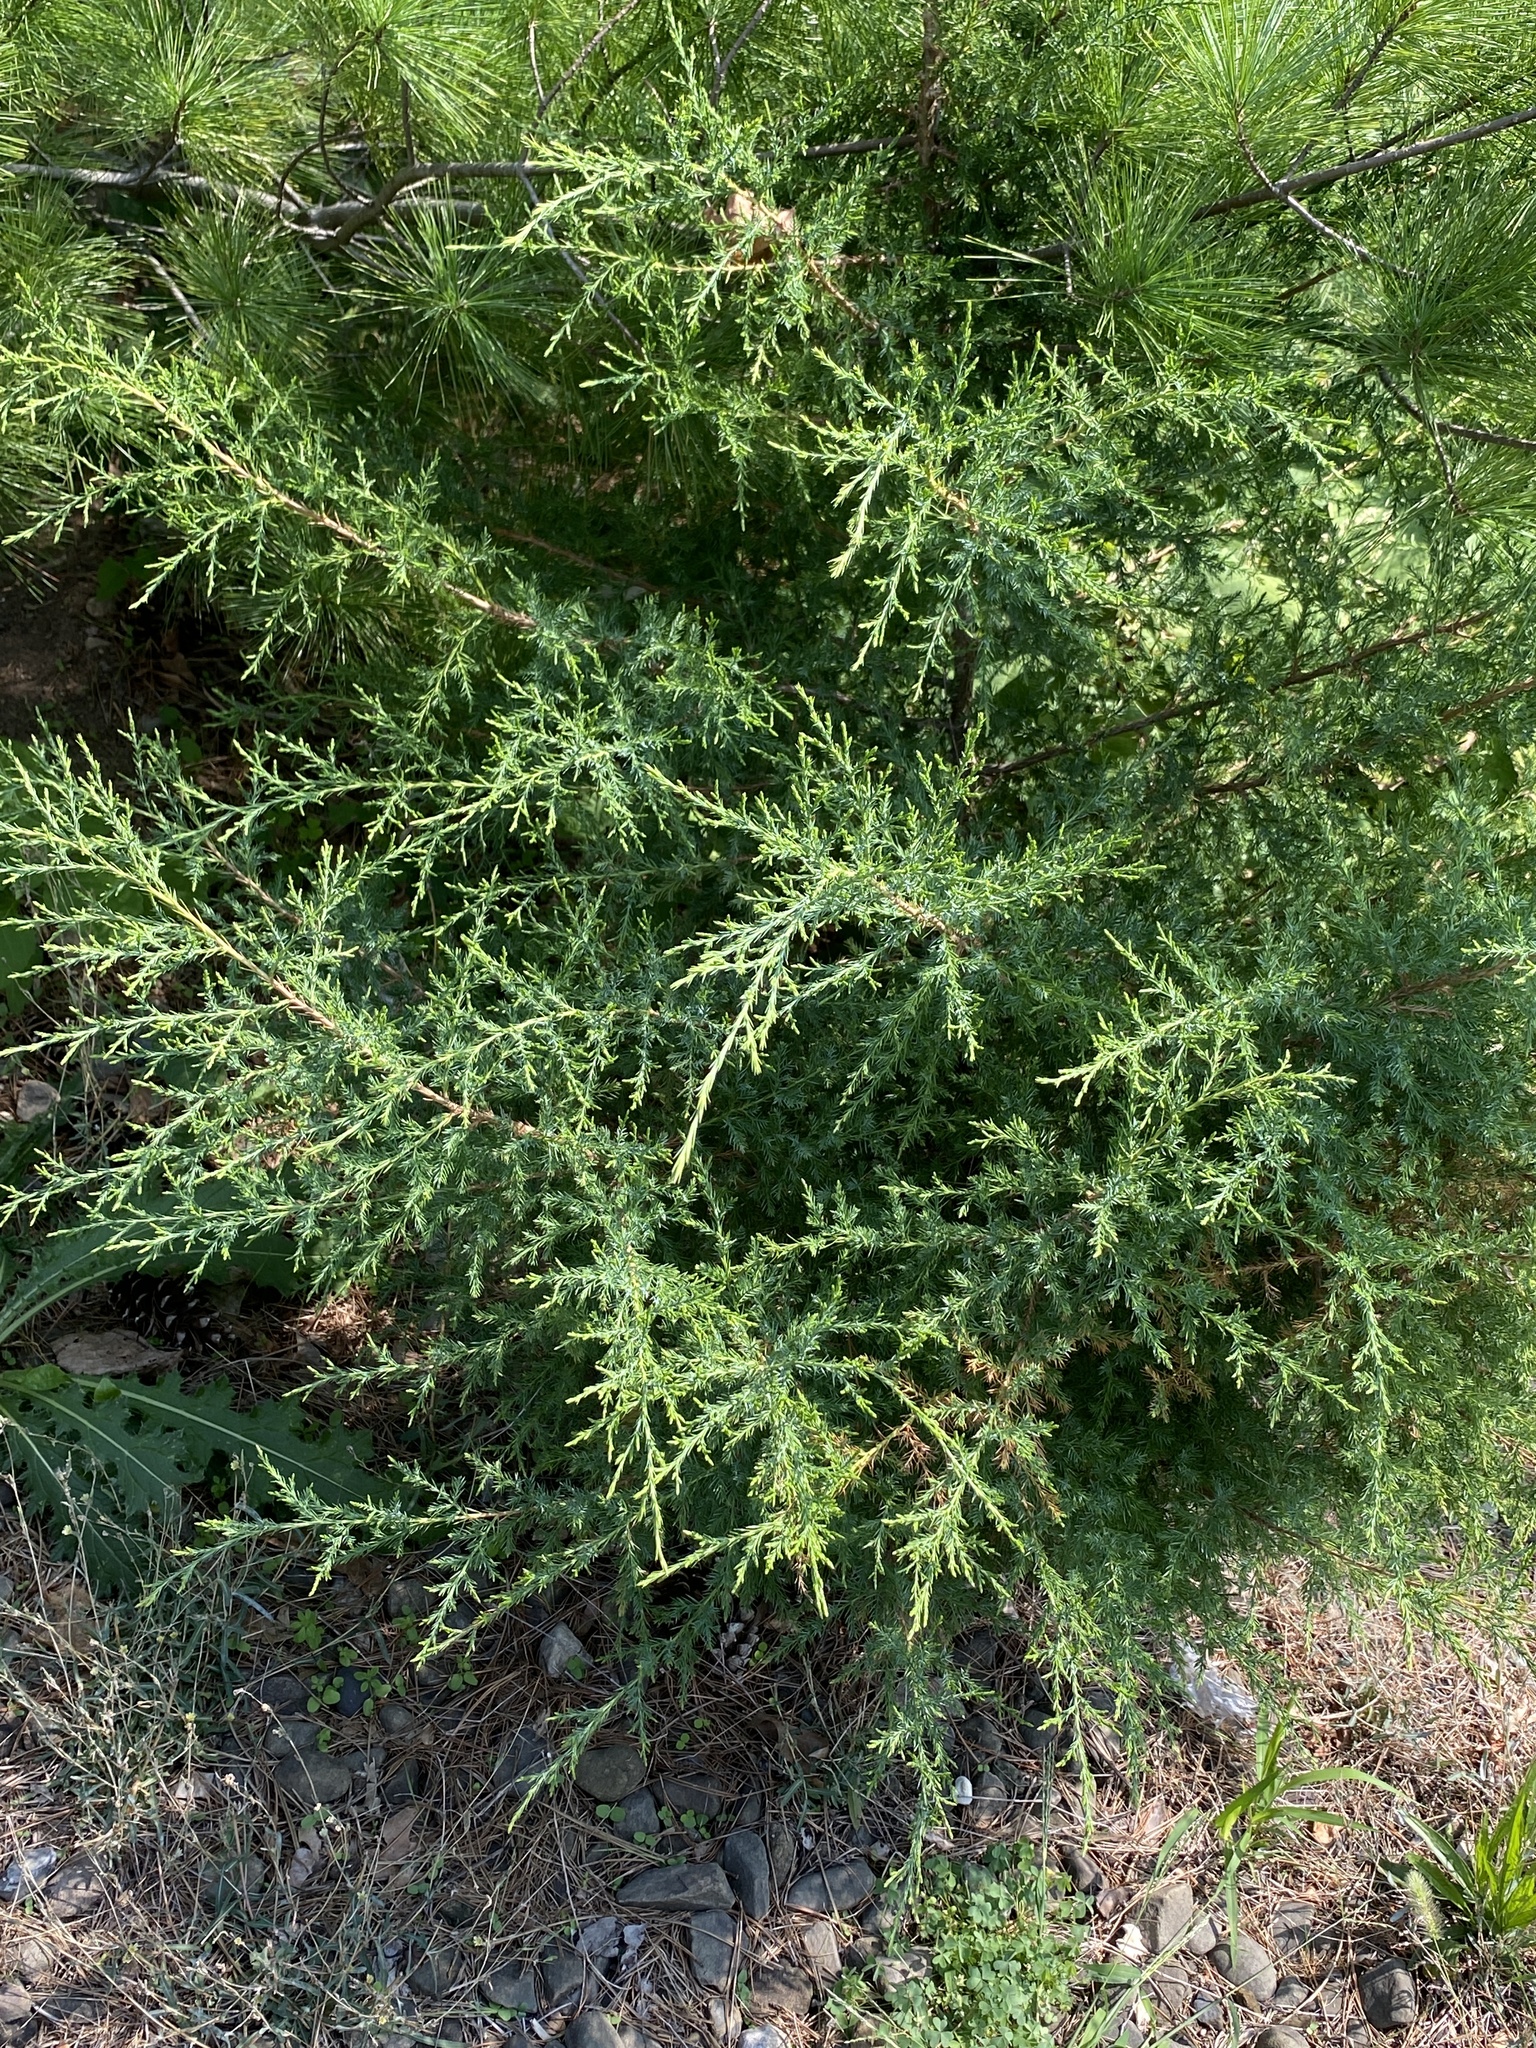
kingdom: Plantae
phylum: Tracheophyta
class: Pinopsida
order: Pinales
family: Cupressaceae
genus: Juniperus
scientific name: Juniperus virginiana
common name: Red juniper
